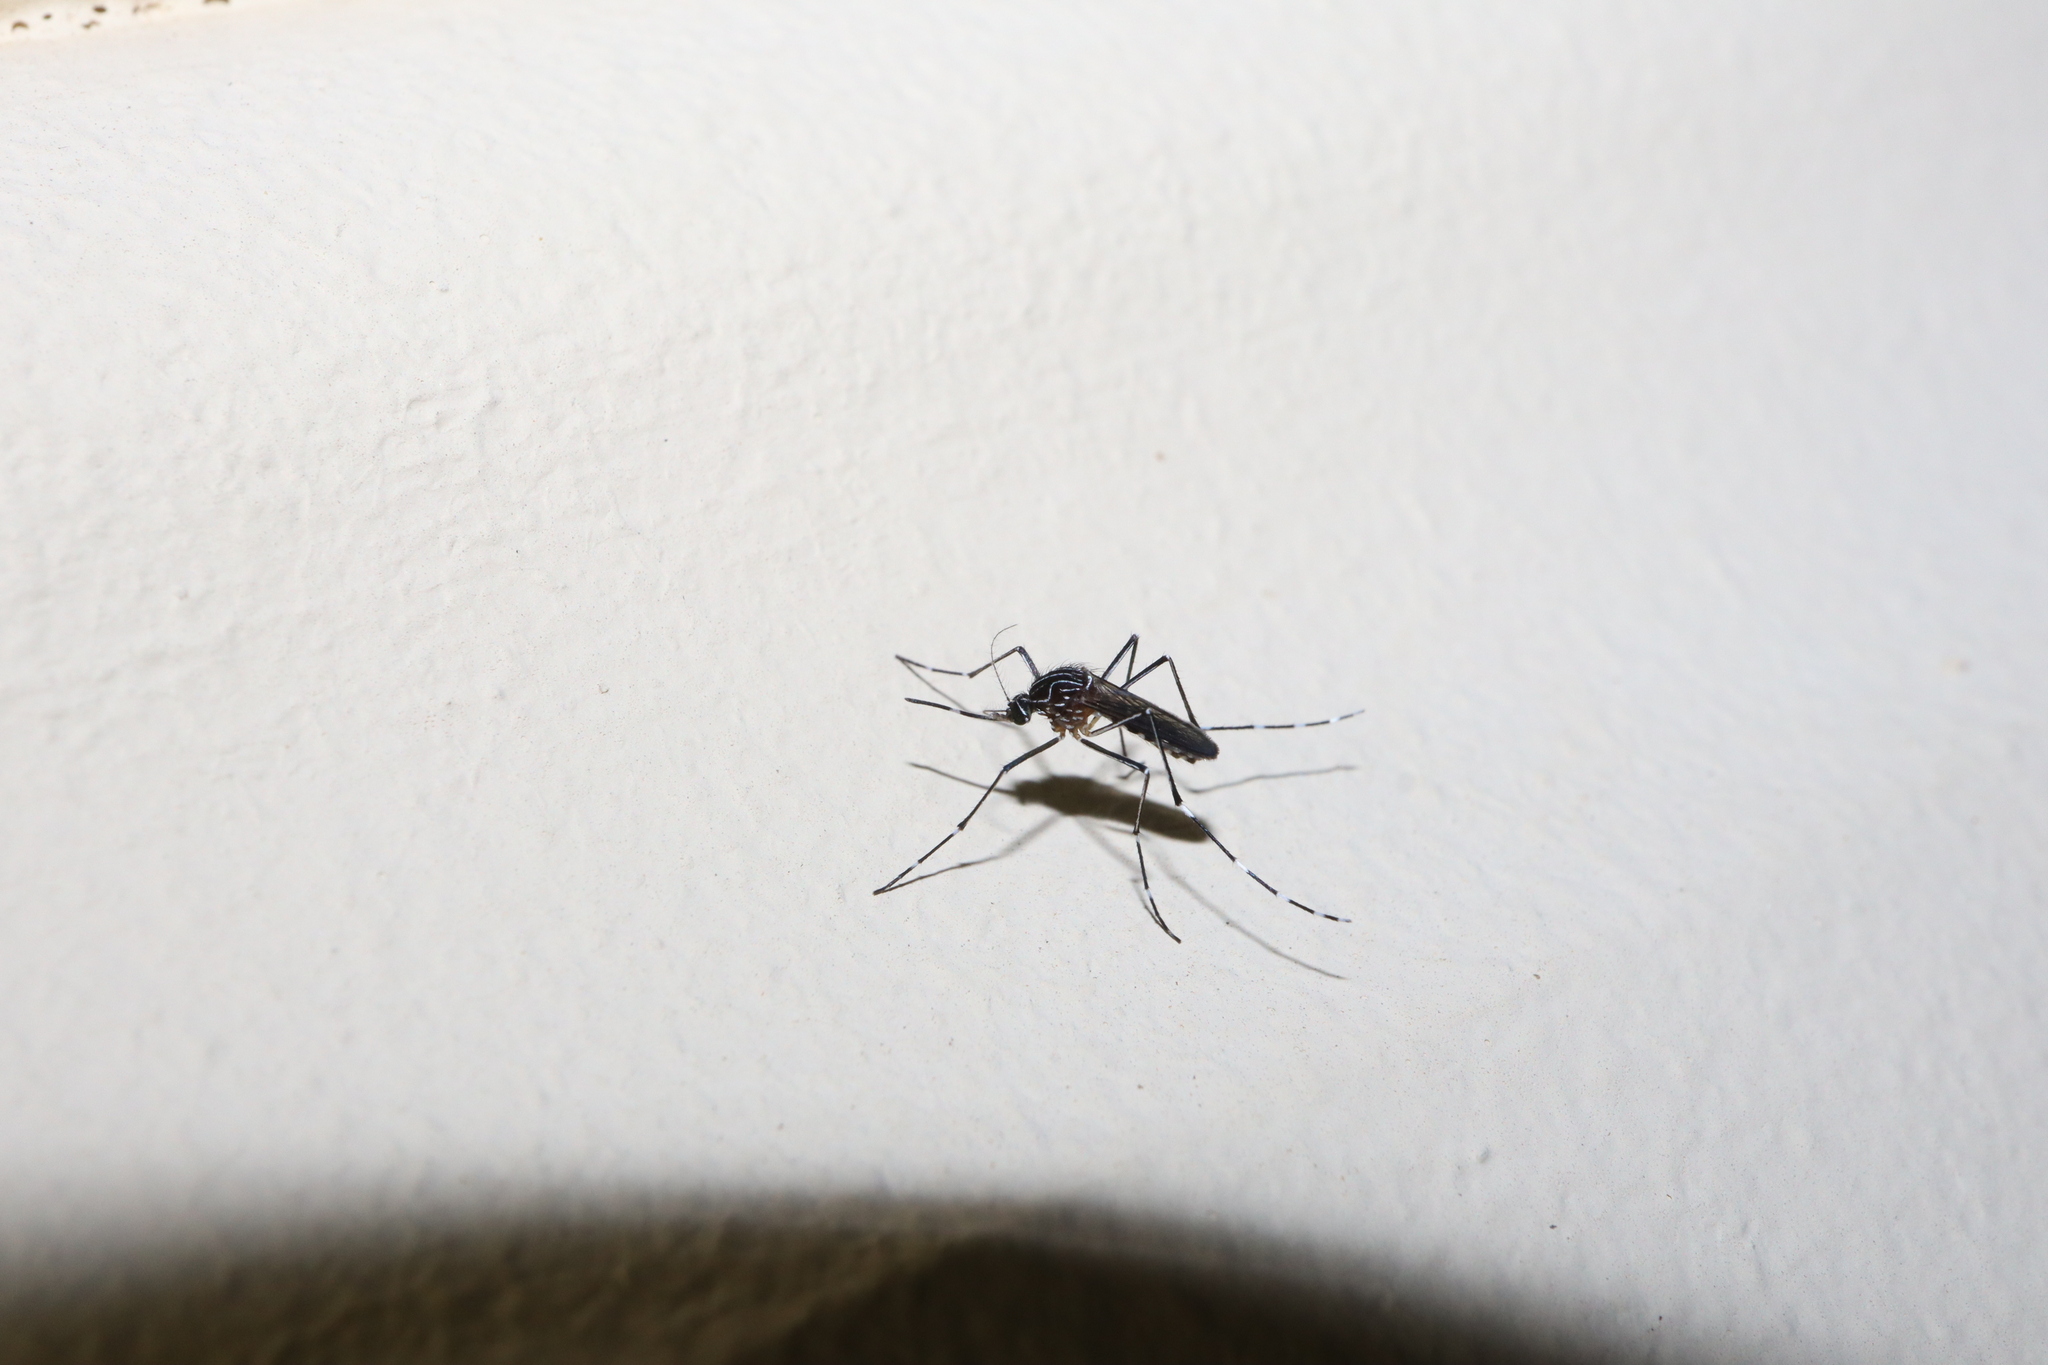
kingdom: Animalia
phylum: Arthropoda
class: Insecta
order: Diptera
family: Culicidae
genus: Aedes
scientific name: Aedes notoscriptus
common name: Australian backyard mosquito
